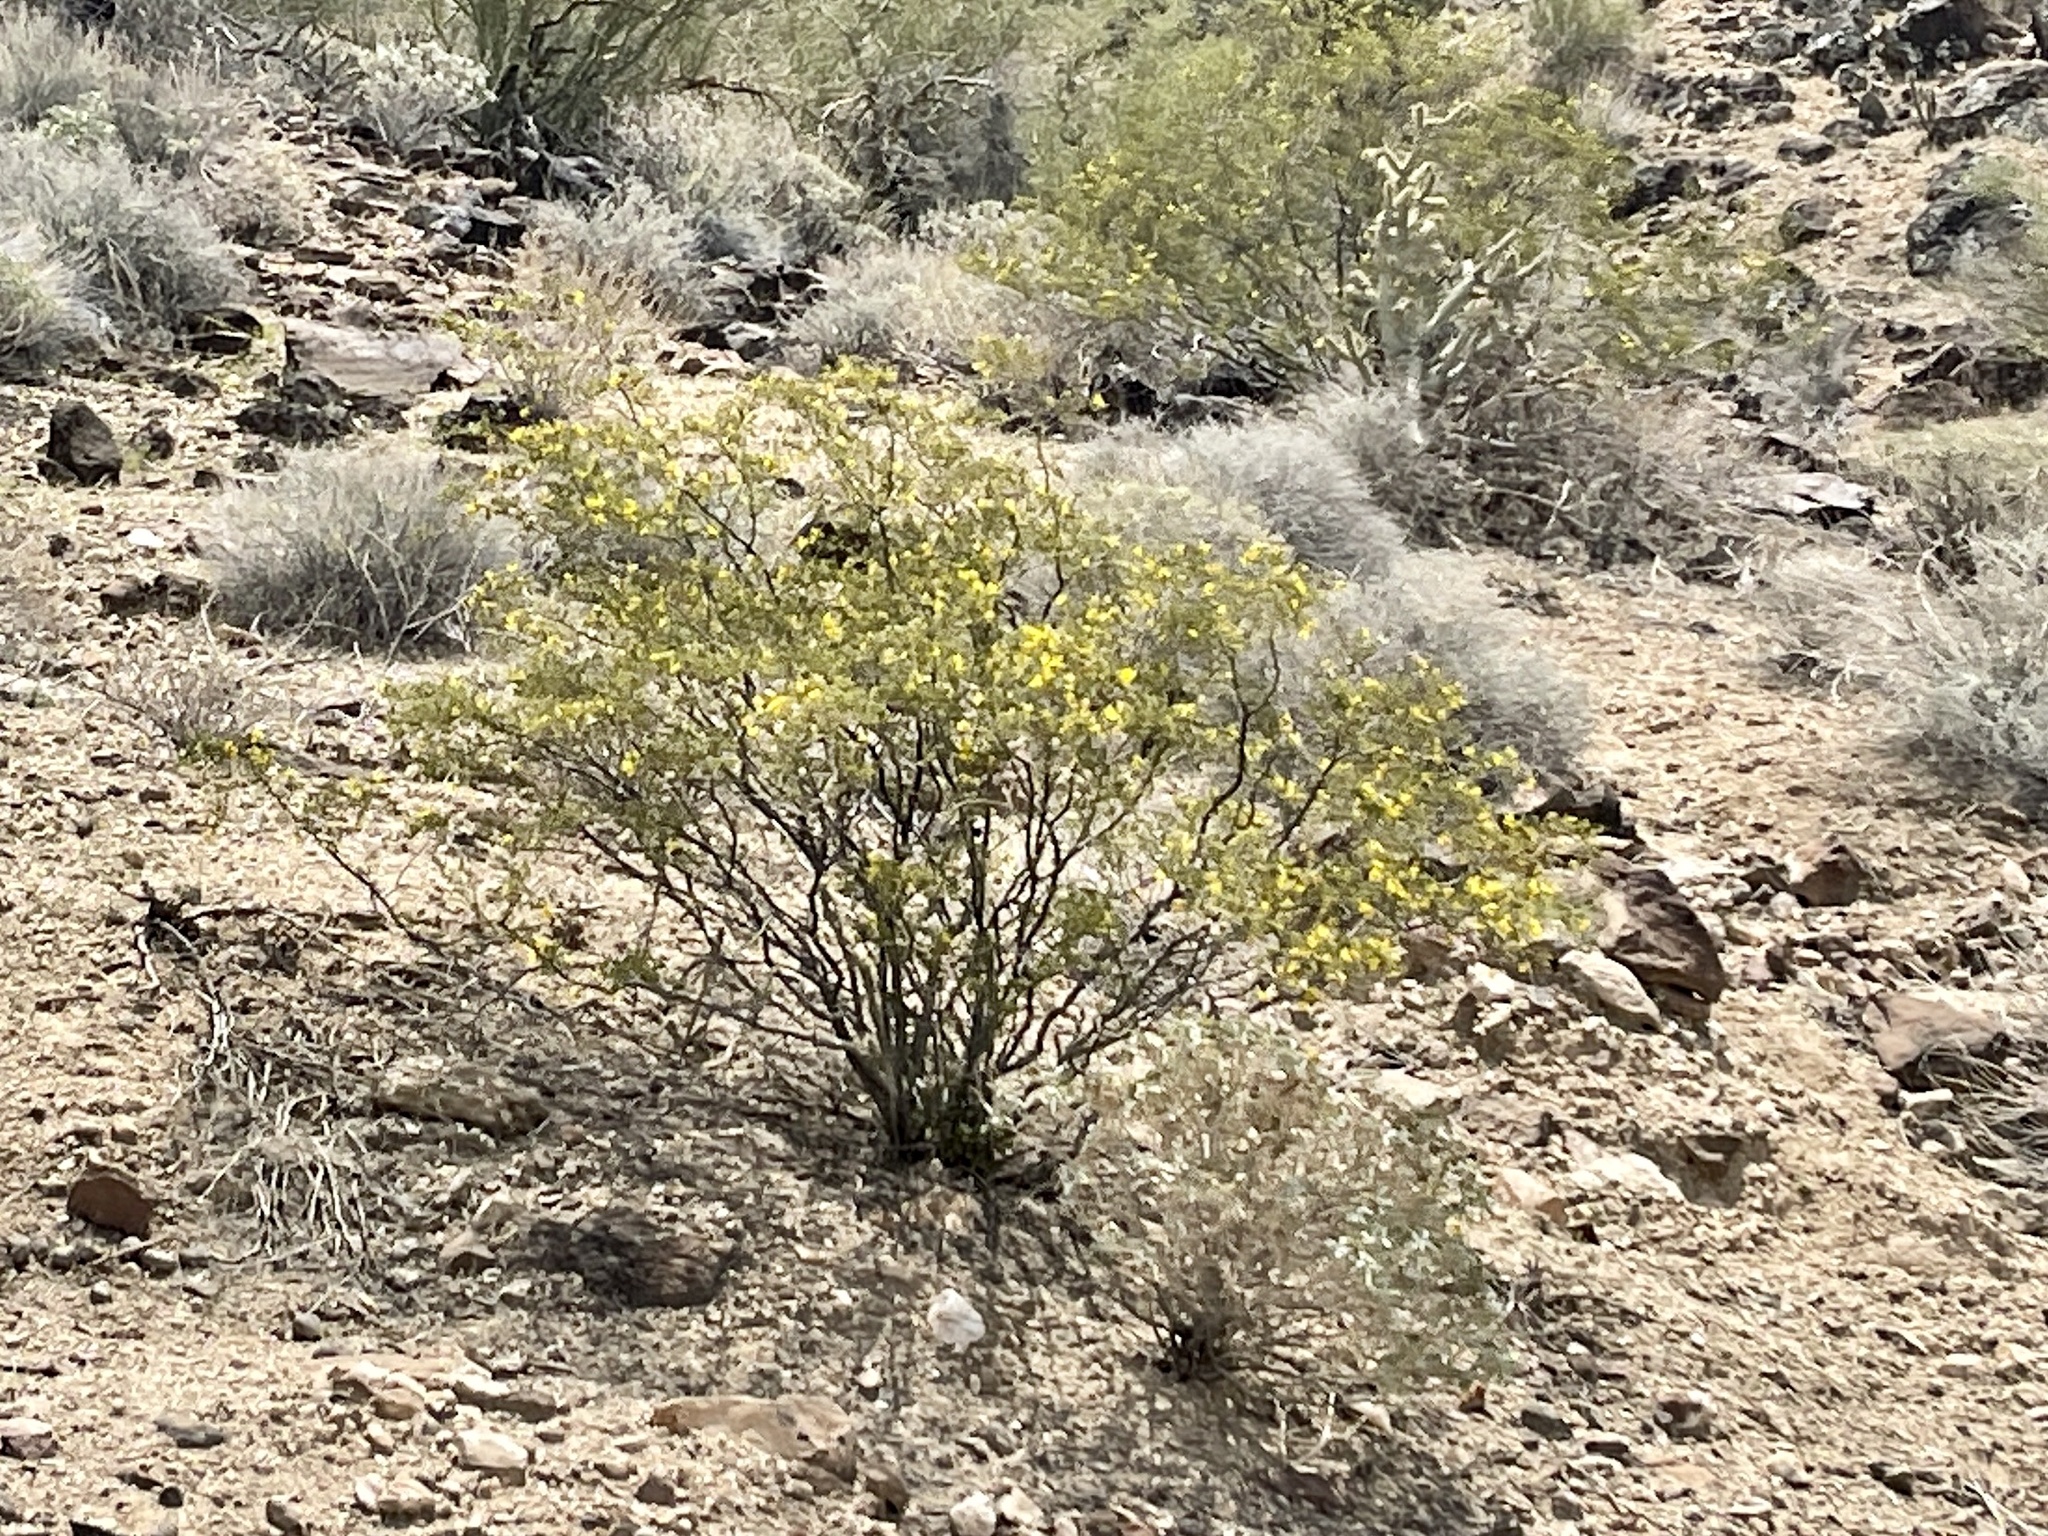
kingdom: Plantae
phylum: Tracheophyta
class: Magnoliopsida
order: Zygophyllales
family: Zygophyllaceae
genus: Larrea
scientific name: Larrea tridentata
